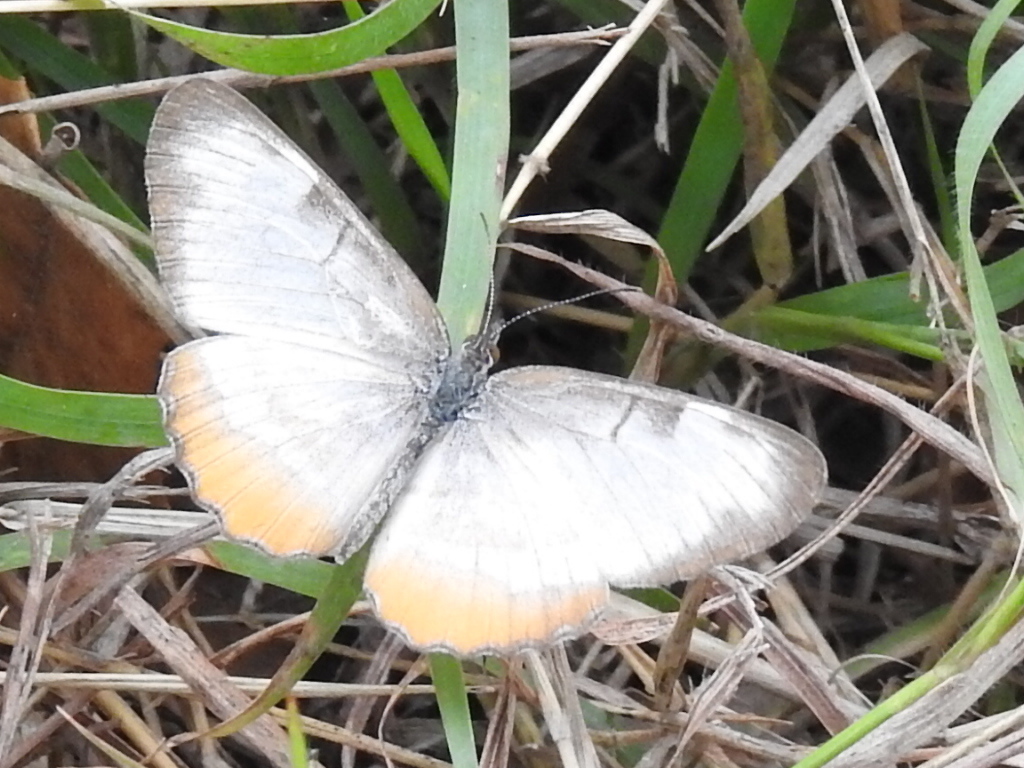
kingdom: Animalia
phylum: Arthropoda
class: Insecta
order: Lepidoptera
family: Nymphalidae
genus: Mestra
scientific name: Mestra amymone
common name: Common mestra
